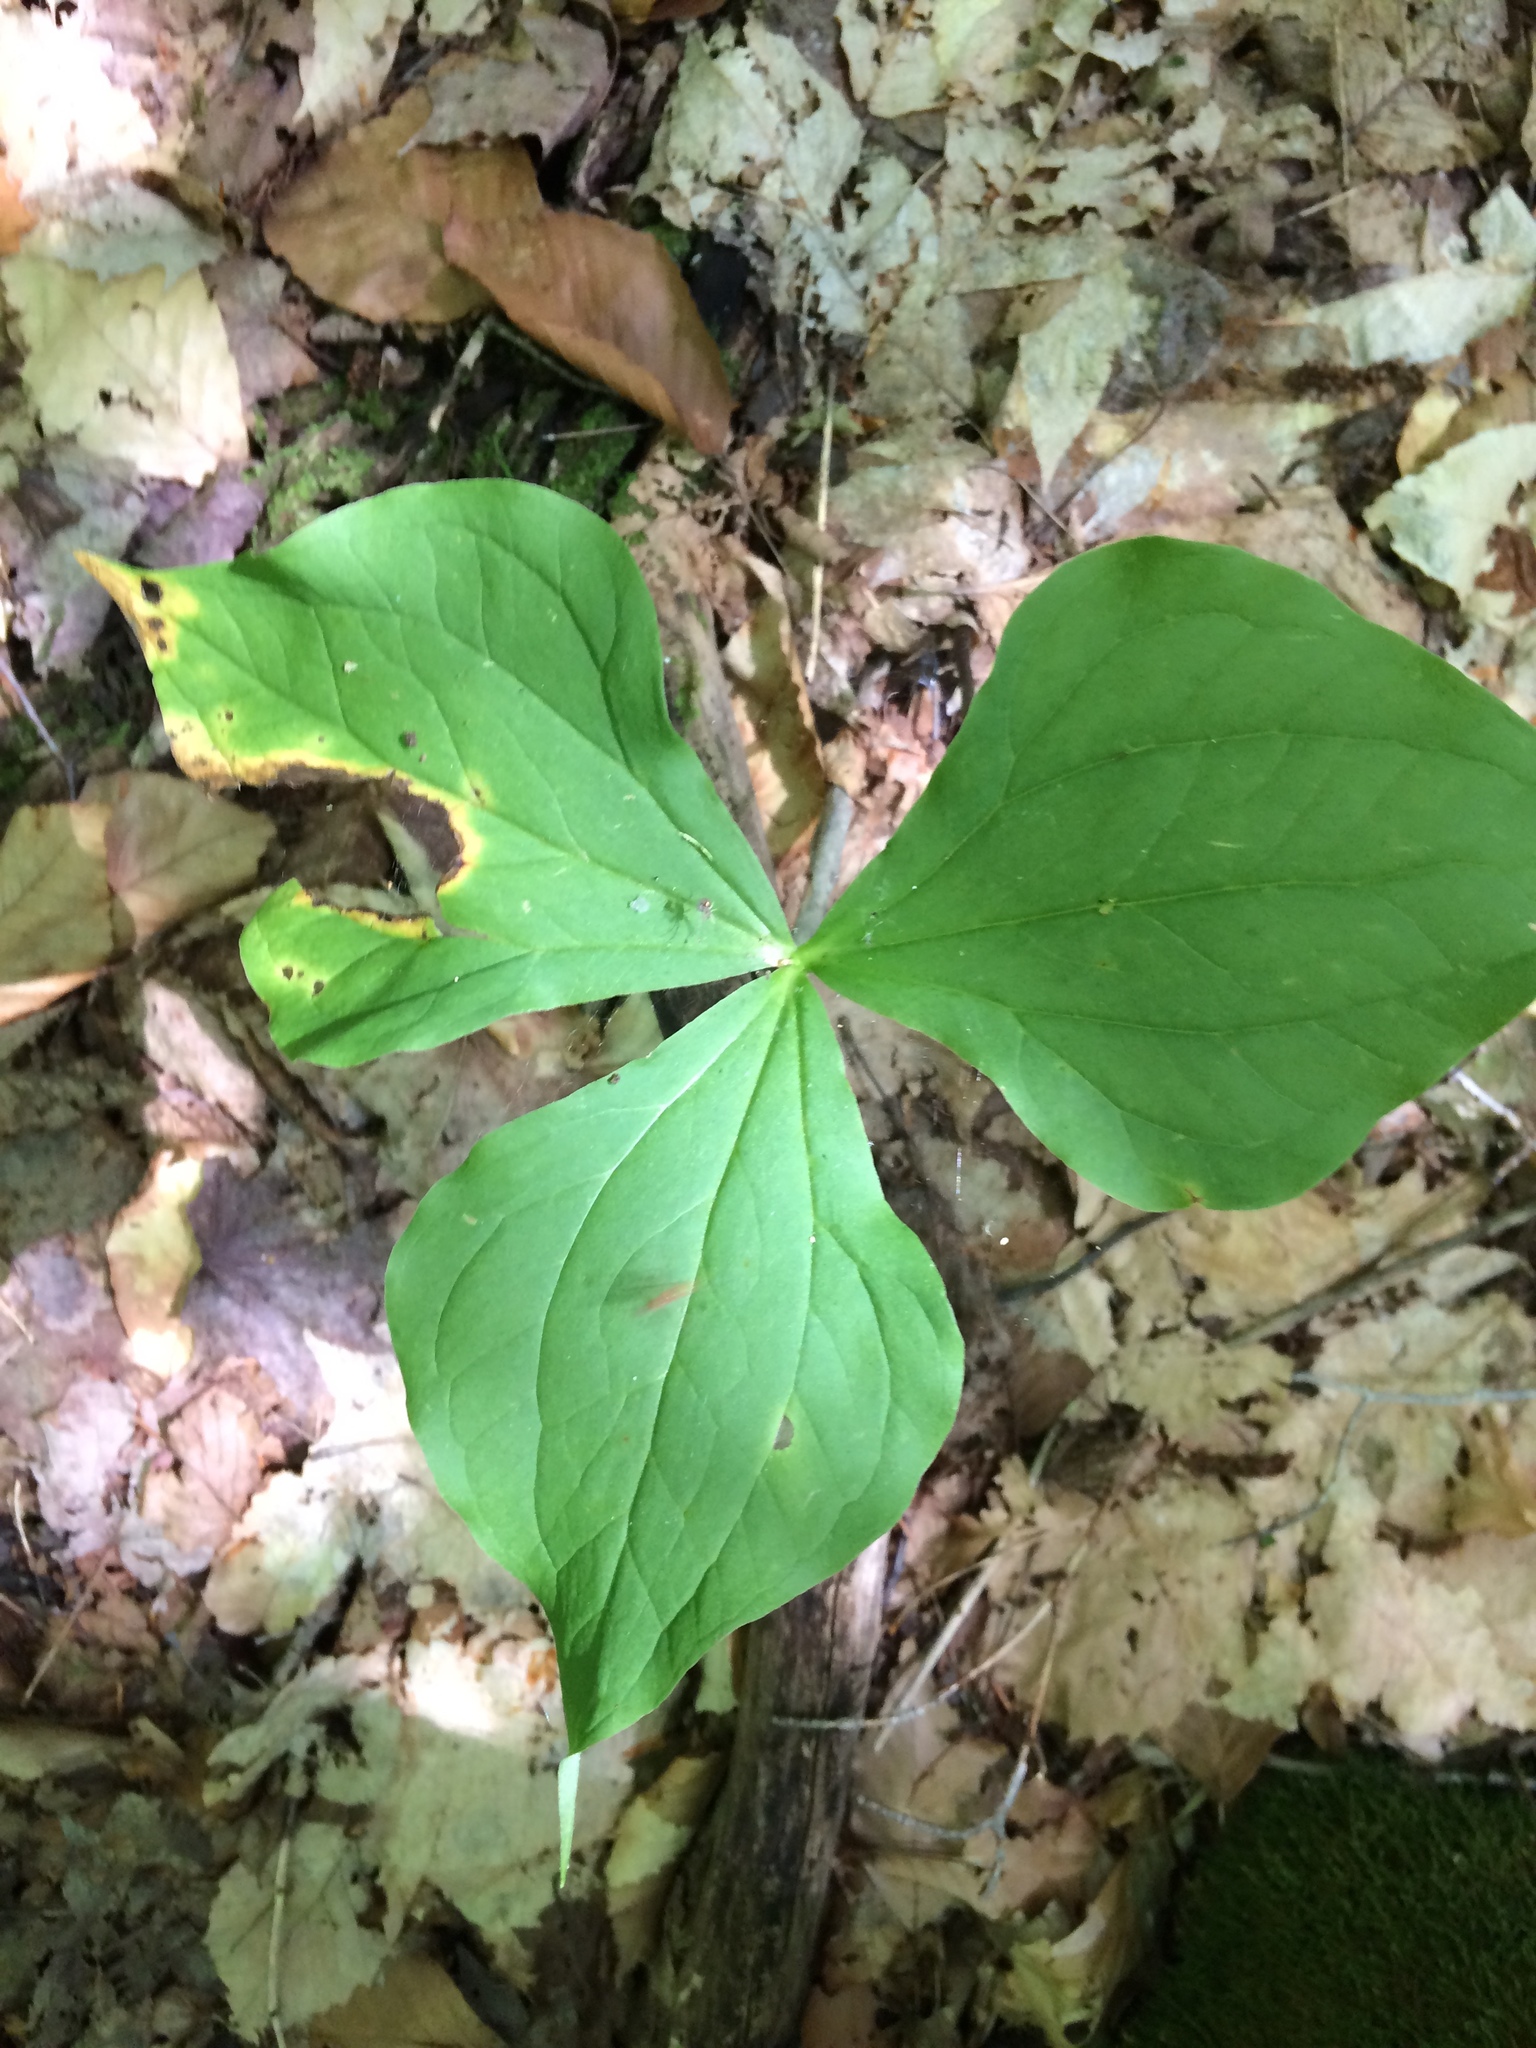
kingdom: Plantae
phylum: Tracheophyta
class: Liliopsida
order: Liliales
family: Melanthiaceae
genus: Trillium
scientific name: Trillium erectum
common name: Purple trillium
